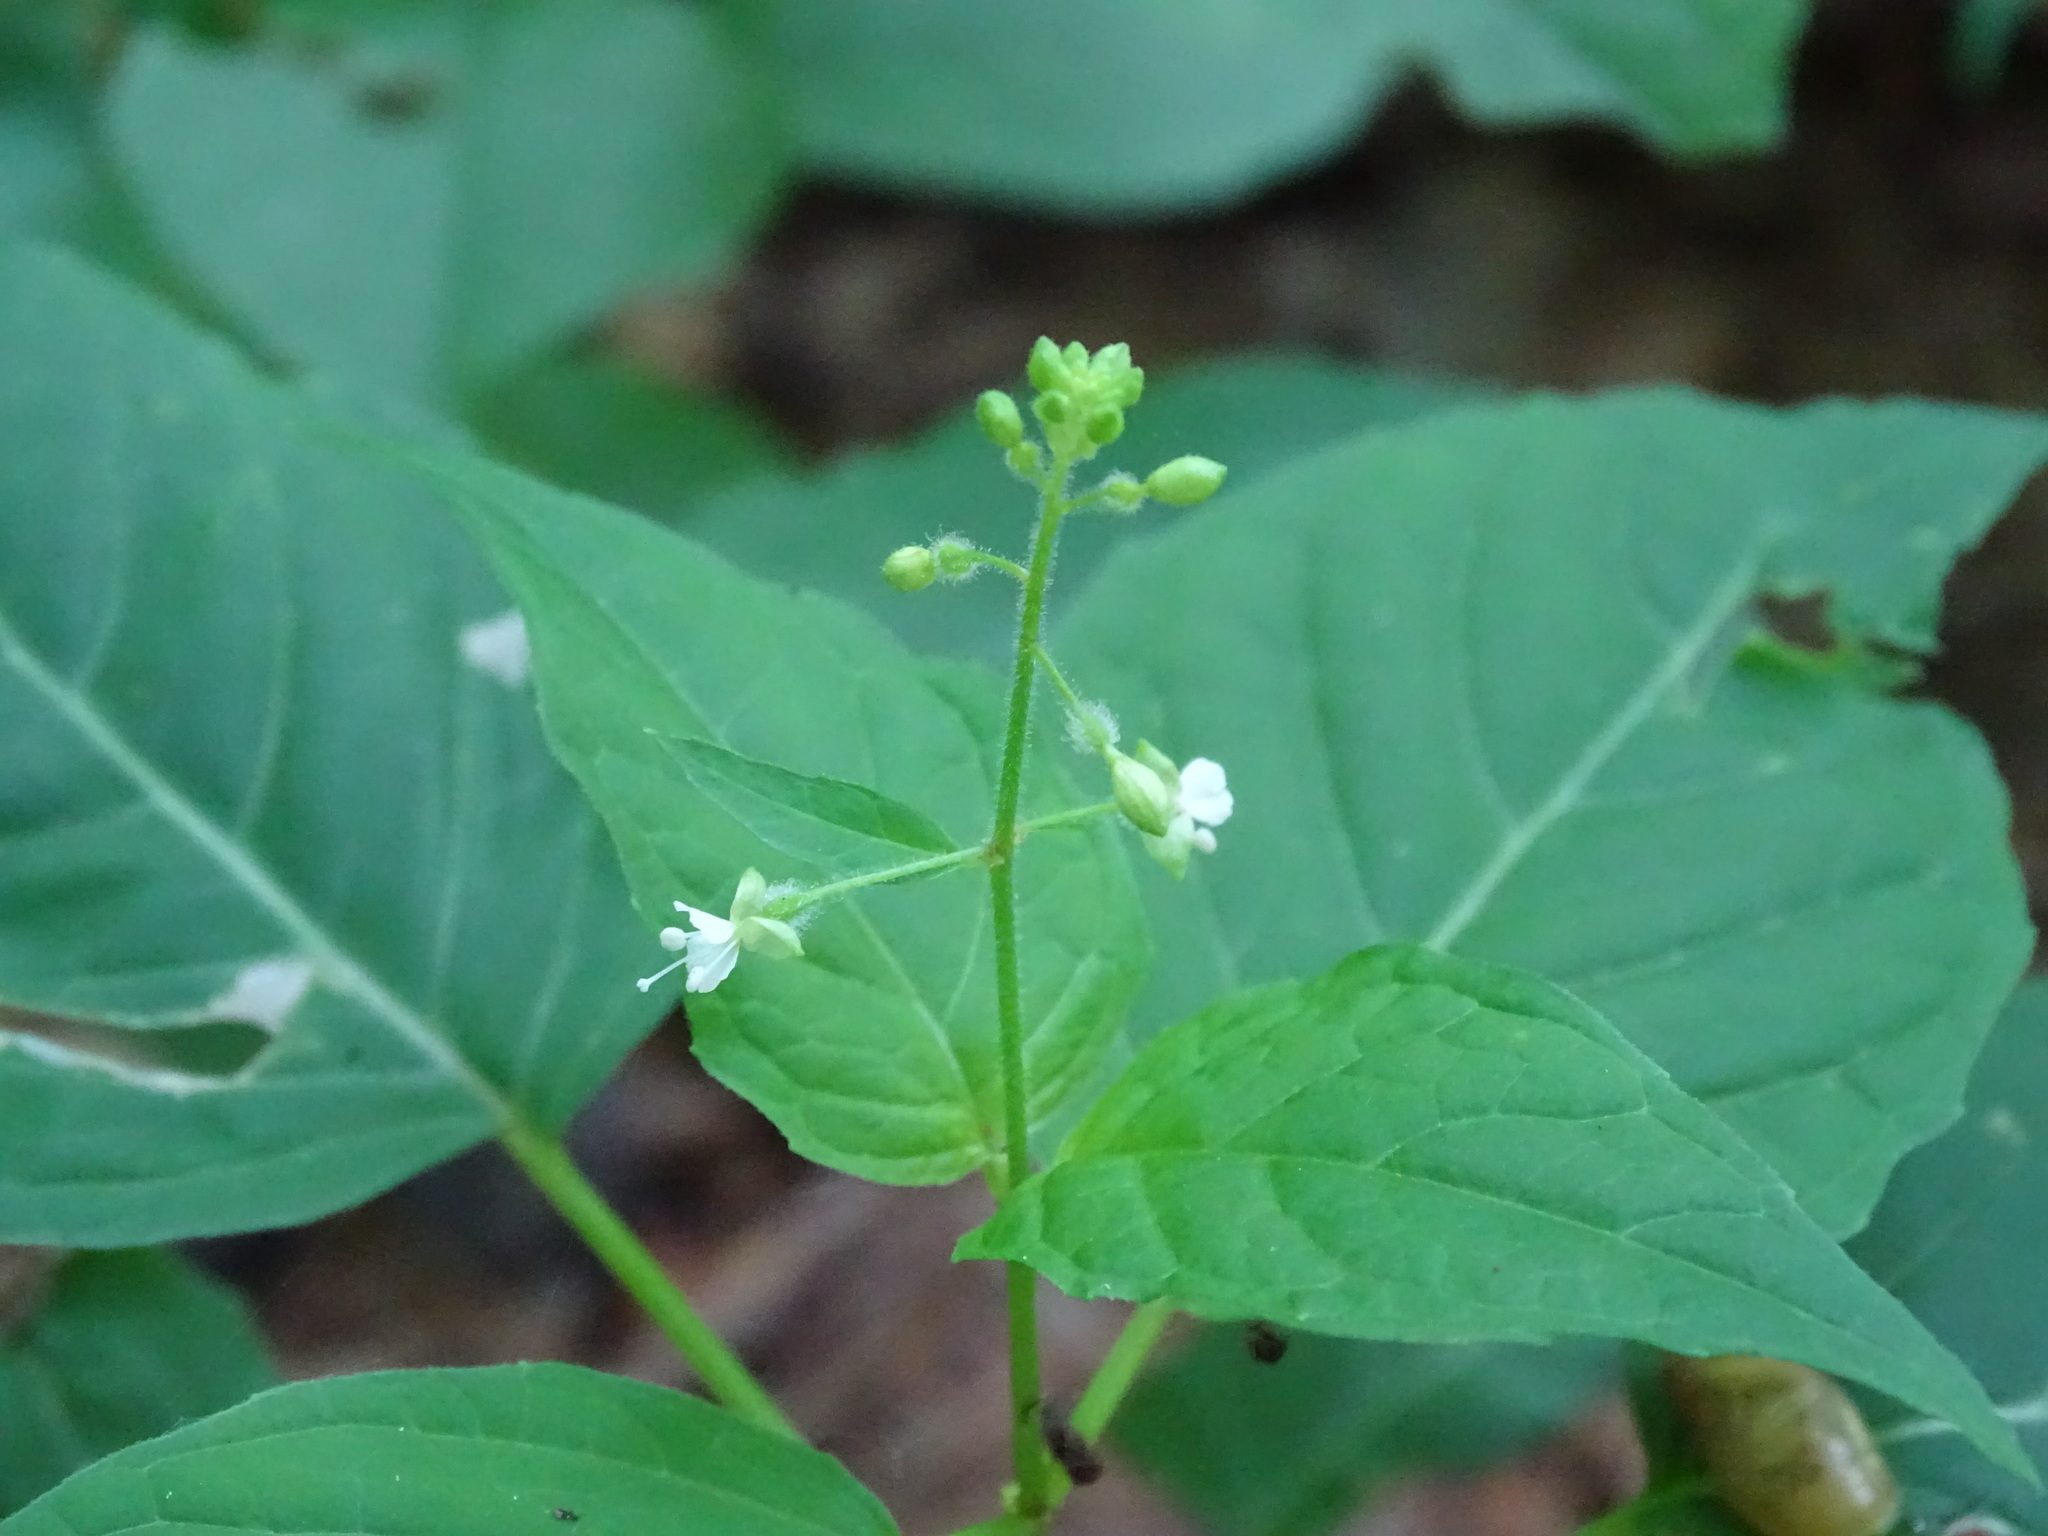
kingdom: Plantae
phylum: Tracheophyta
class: Magnoliopsida
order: Myrtales
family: Onagraceae
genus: Circaea
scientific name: Circaea canadensis
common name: Broad-leaved enchanter's nightshade
